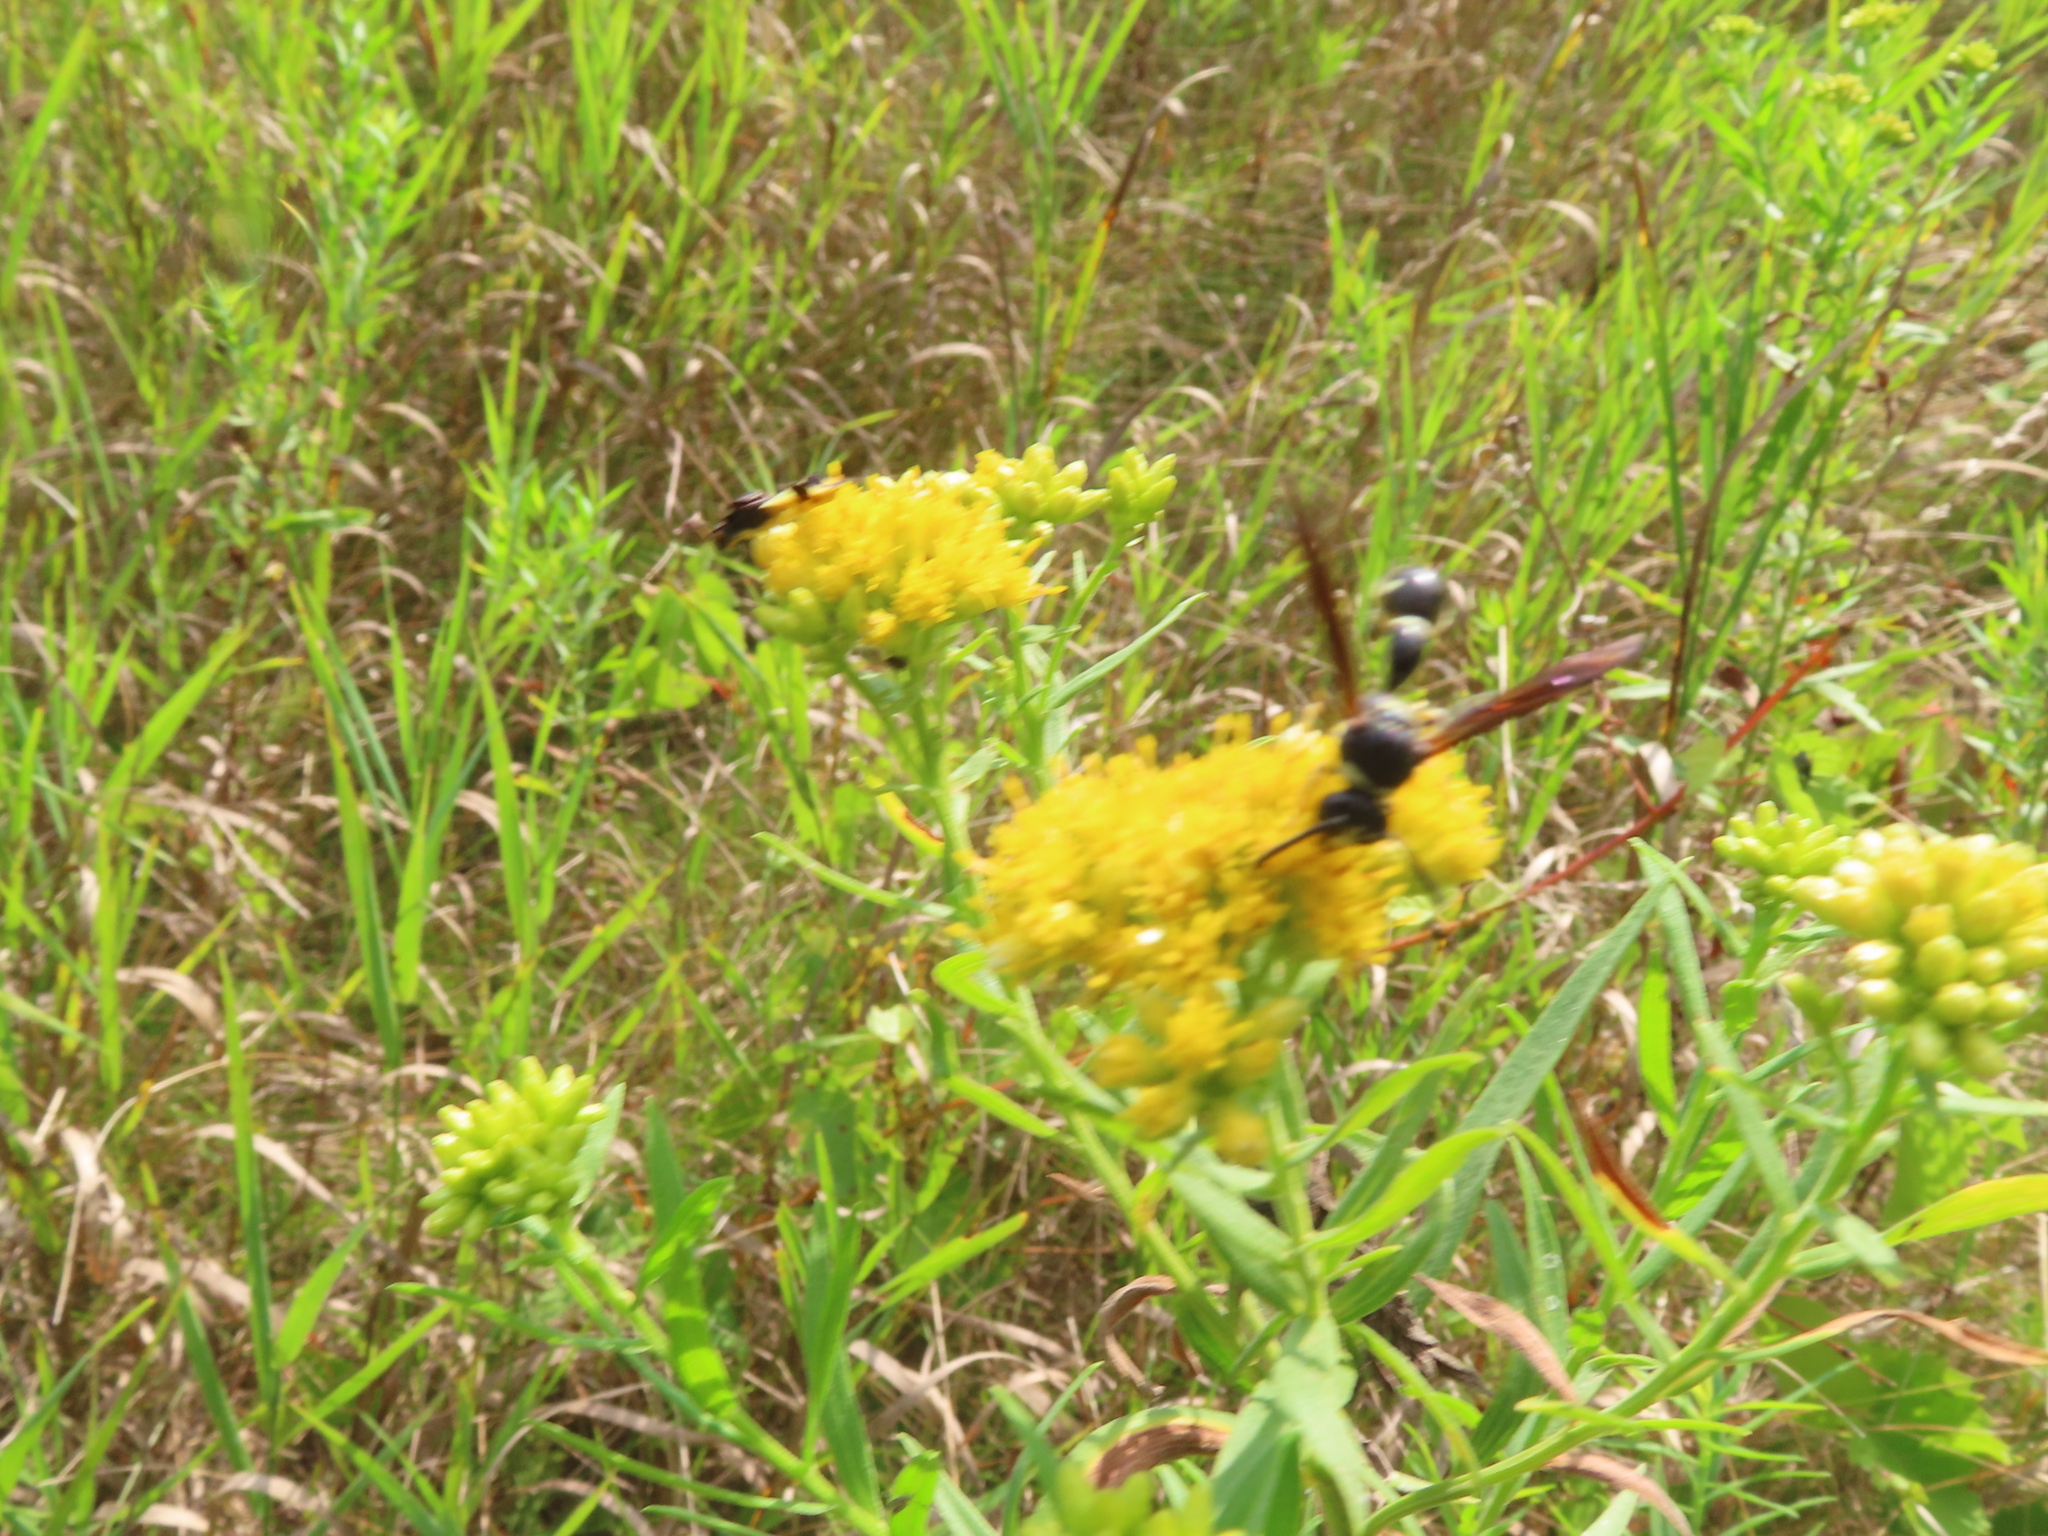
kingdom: Animalia
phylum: Arthropoda
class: Insecta
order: Hymenoptera
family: Vespidae
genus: Eumenes
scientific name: Eumenes fraternus
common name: Fraternal potter wasp
